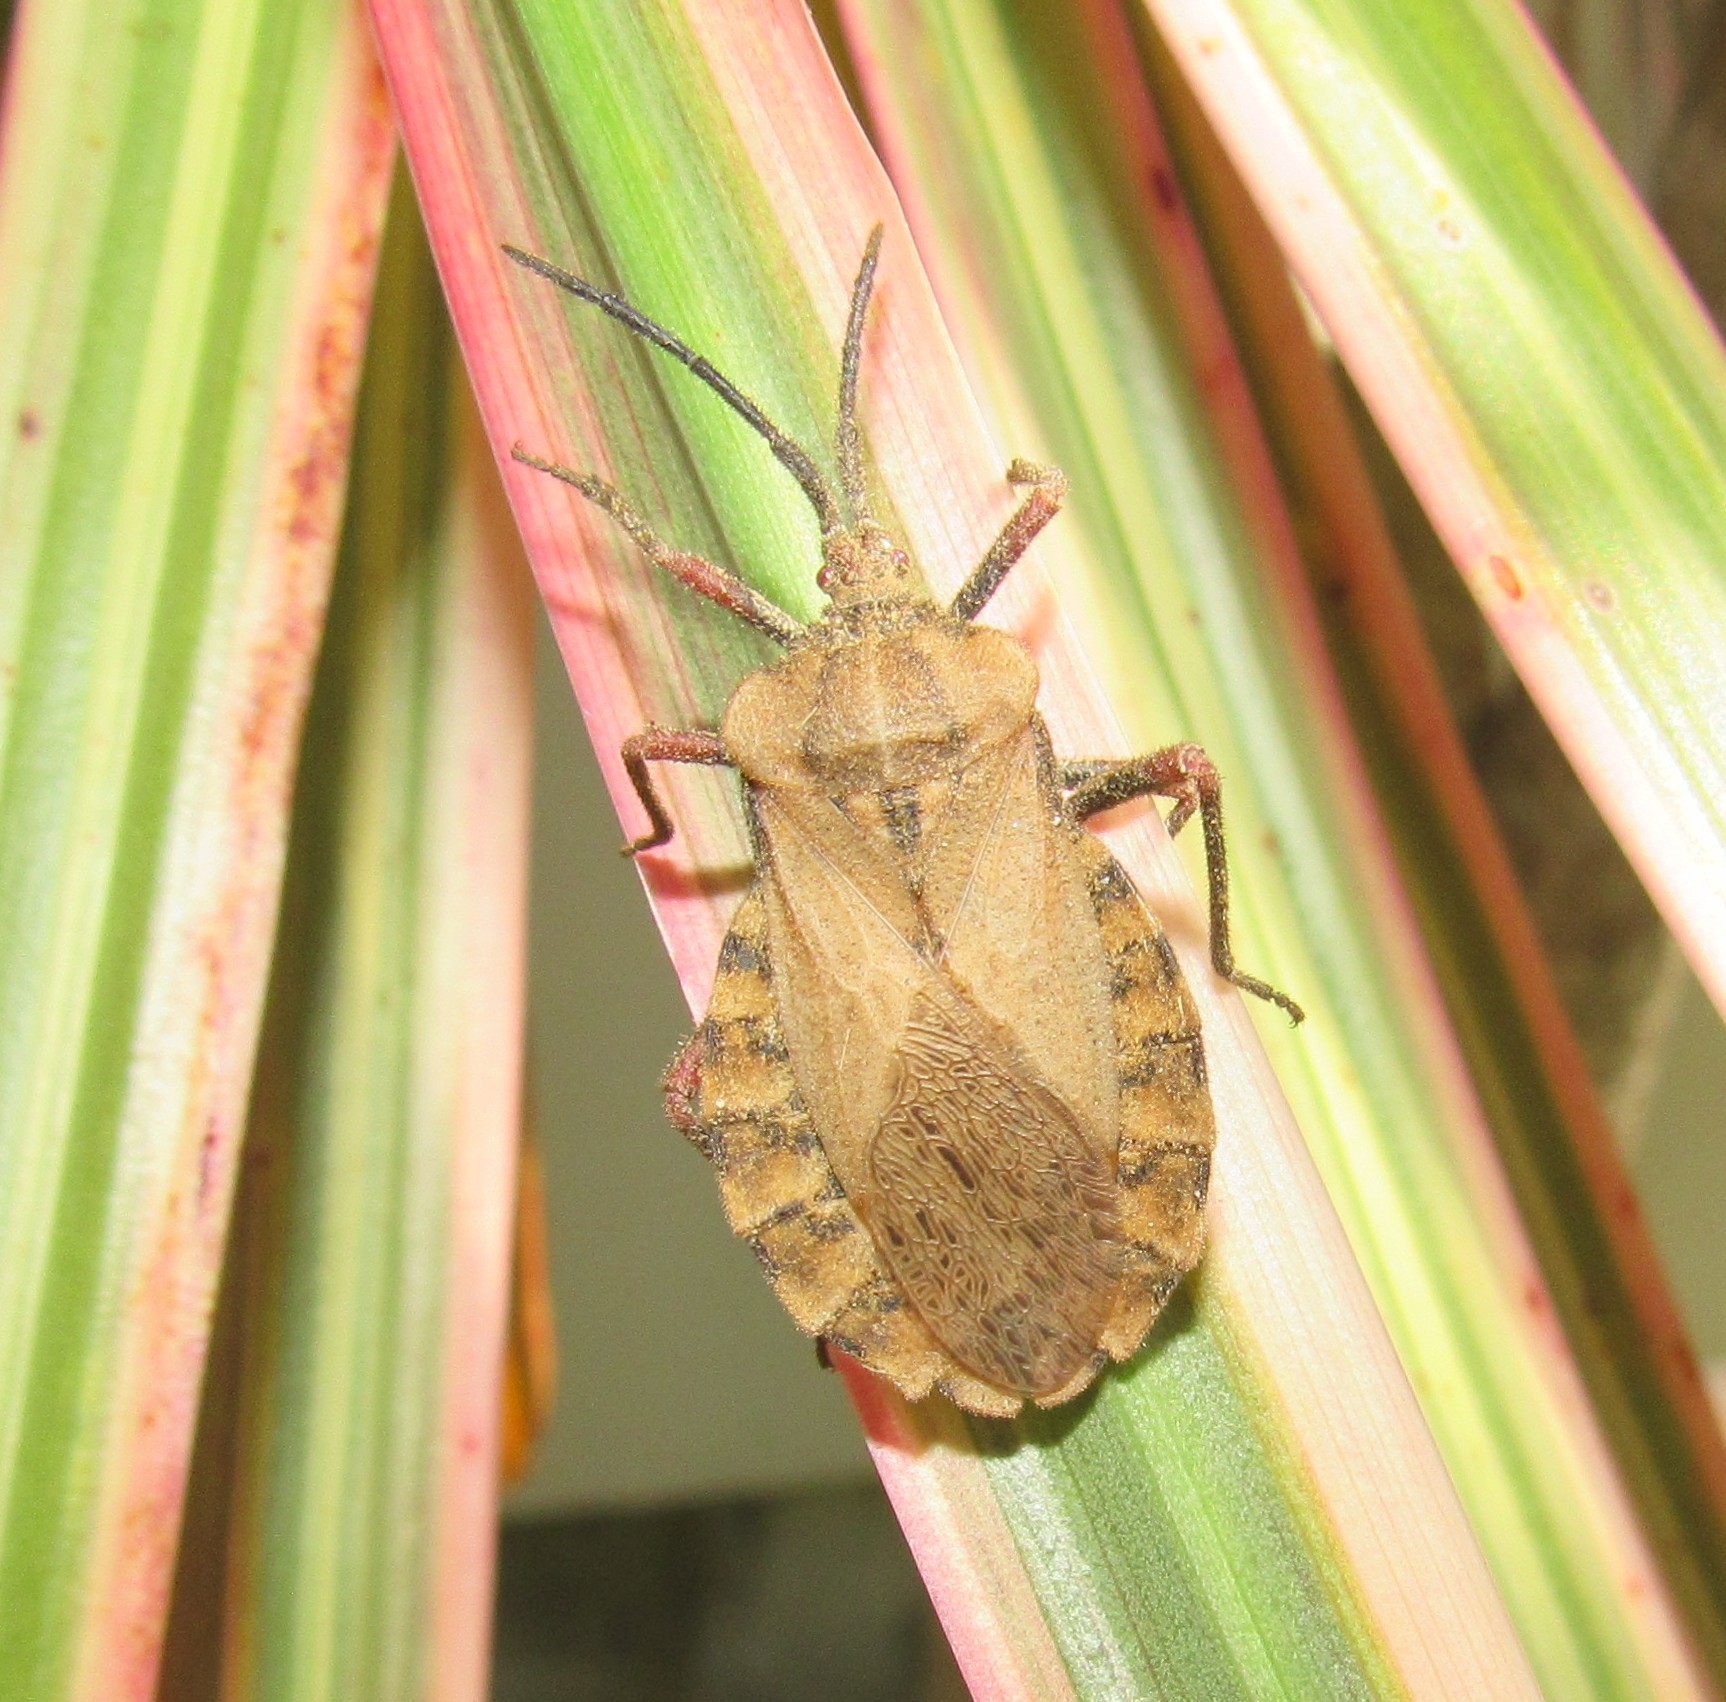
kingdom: Animalia
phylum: Arthropoda
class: Insecta
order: Hemiptera
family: Coreidae
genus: Spartocera
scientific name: Spartocera fusca
